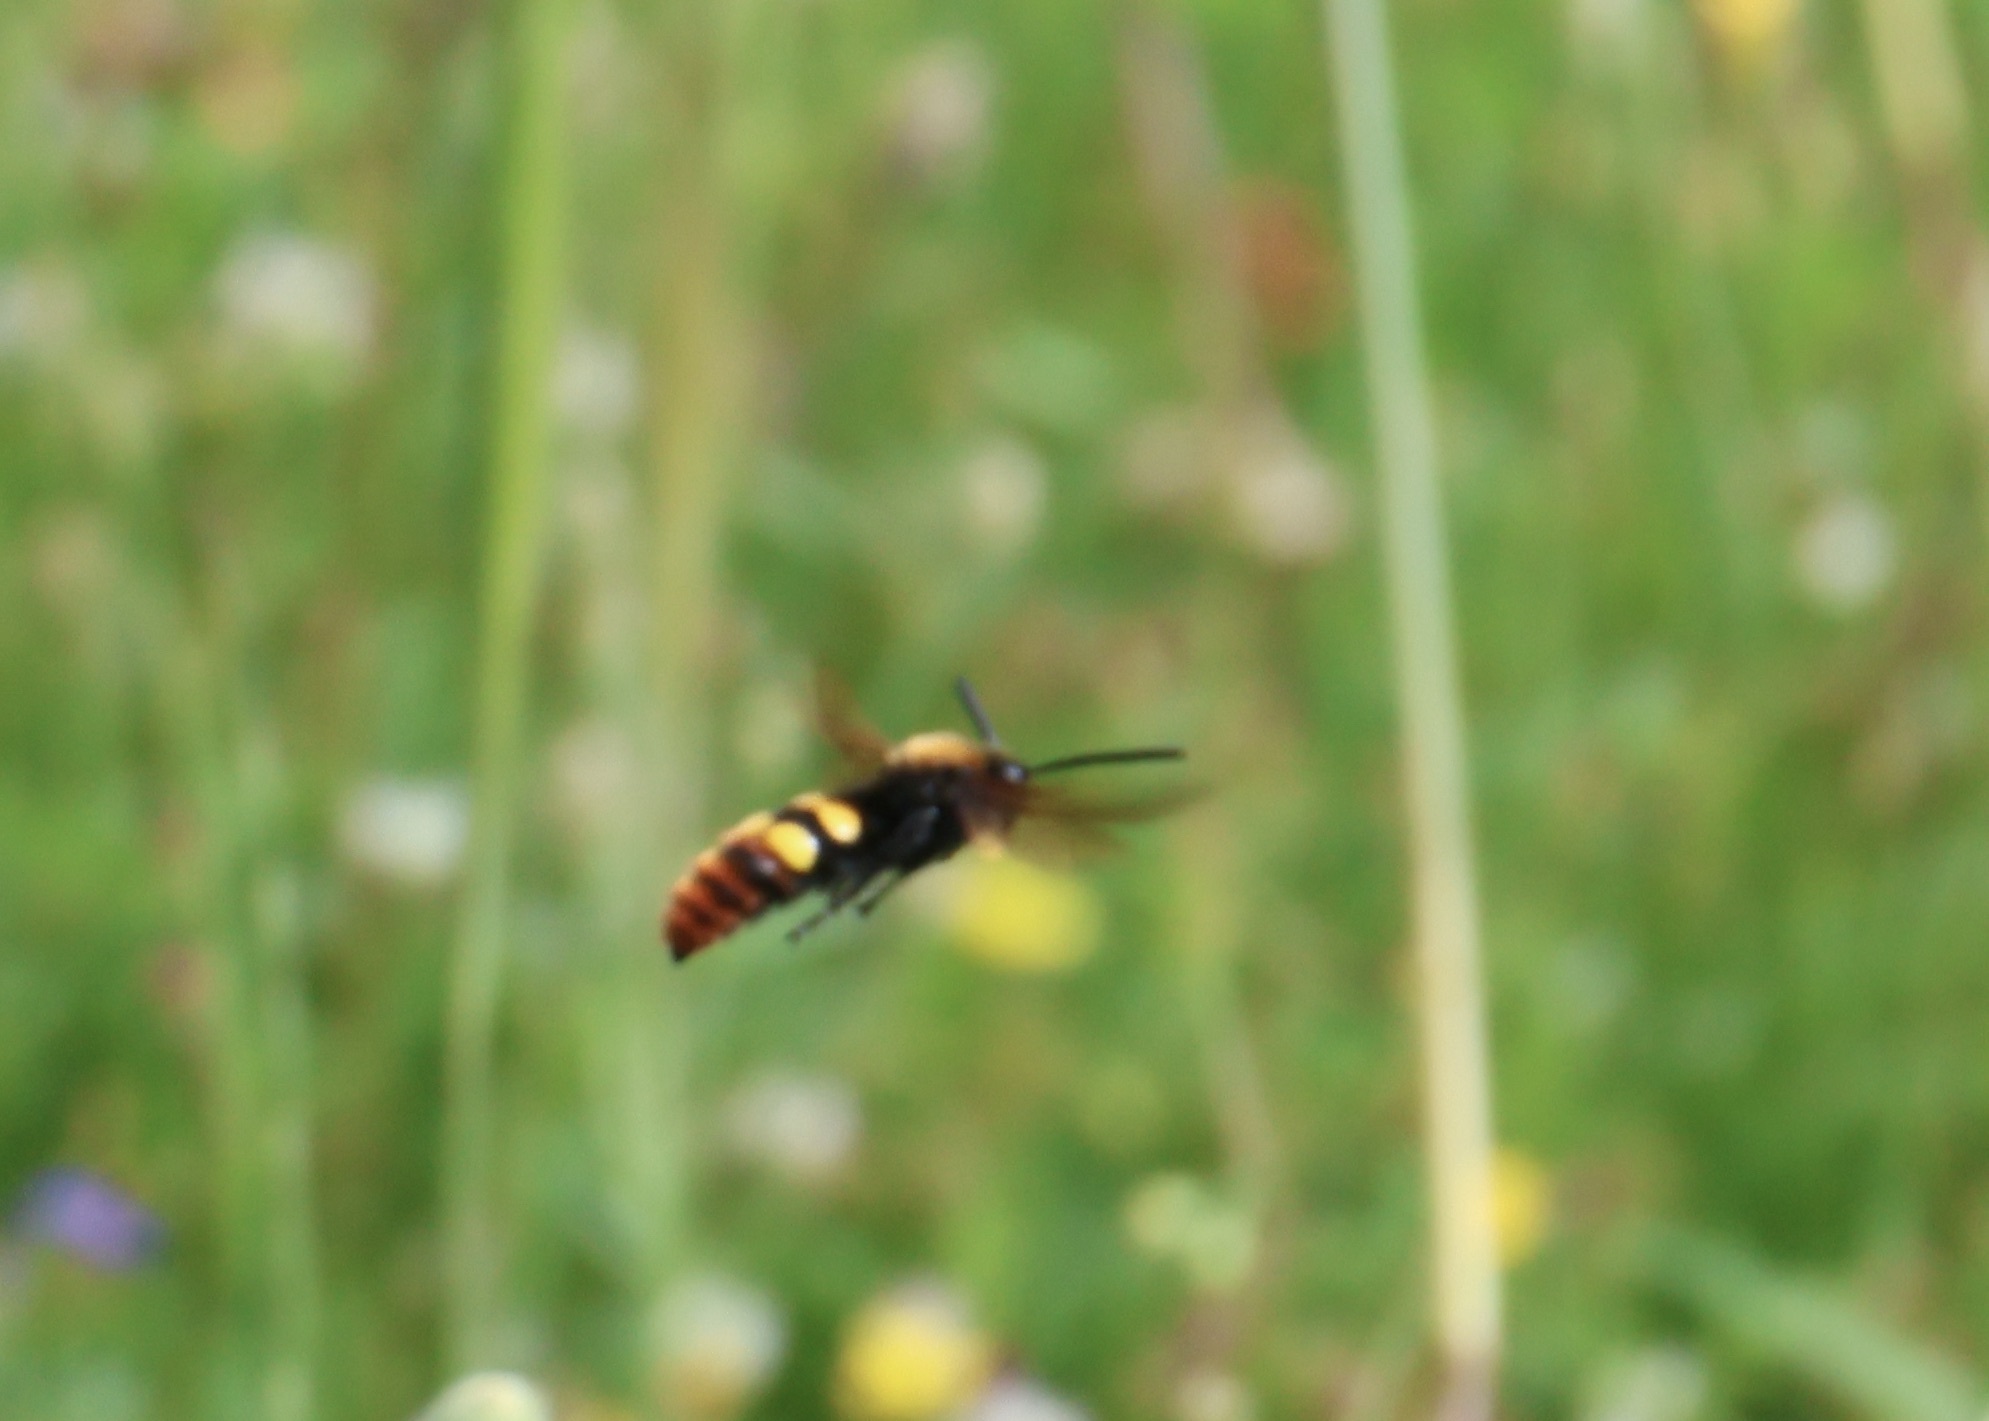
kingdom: Animalia
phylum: Arthropoda
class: Insecta
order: Hymenoptera
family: Scoliidae
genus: Megascolia
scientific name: Megascolia maculata
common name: Mammoth wasp
